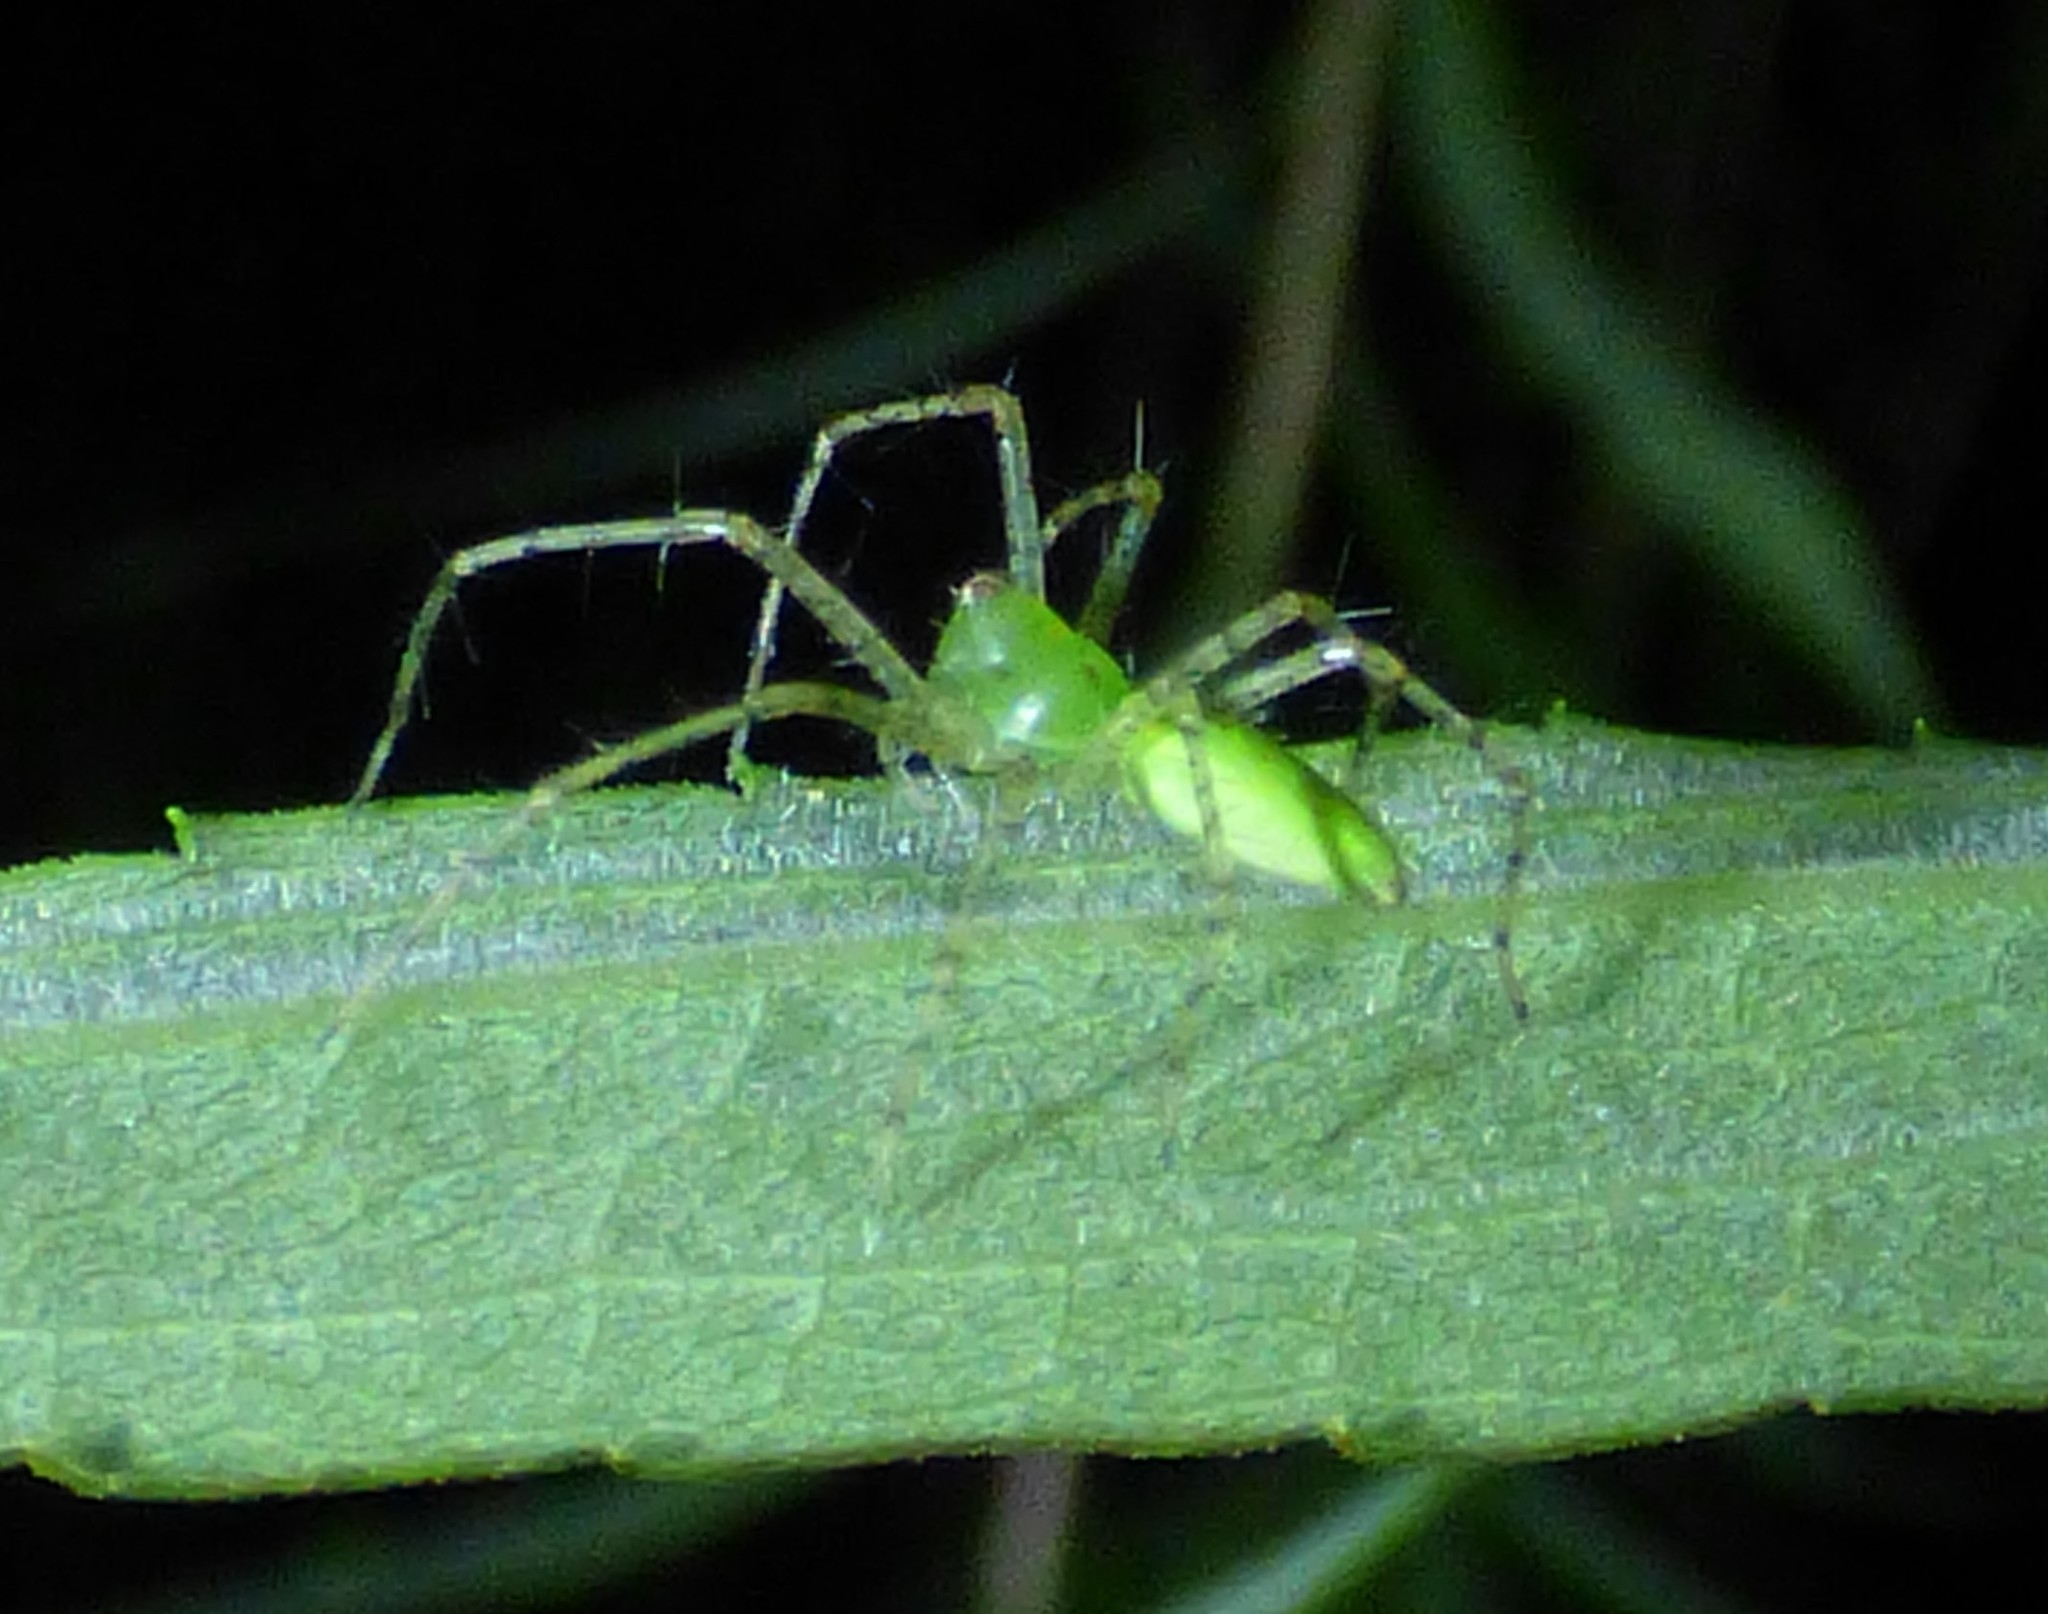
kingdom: Animalia
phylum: Arthropoda
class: Arachnida
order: Araneae
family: Oxyopidae
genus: Peucetia
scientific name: Peucetia viridans
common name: Lynx spiders
